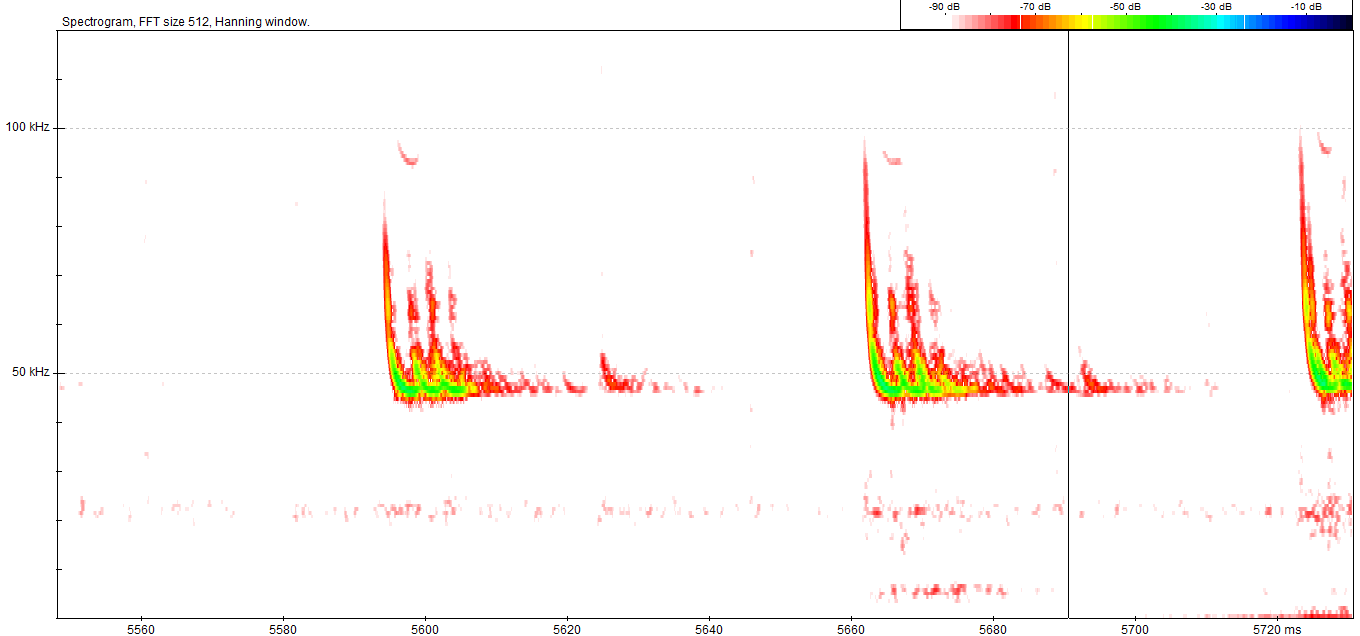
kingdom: Animalia
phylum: Chordata
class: Mammalia
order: Chiroptera
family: Vespertilionidae
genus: Pipistrellus
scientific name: Pipistrellus pipistrellus
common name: Common pipistrelle
